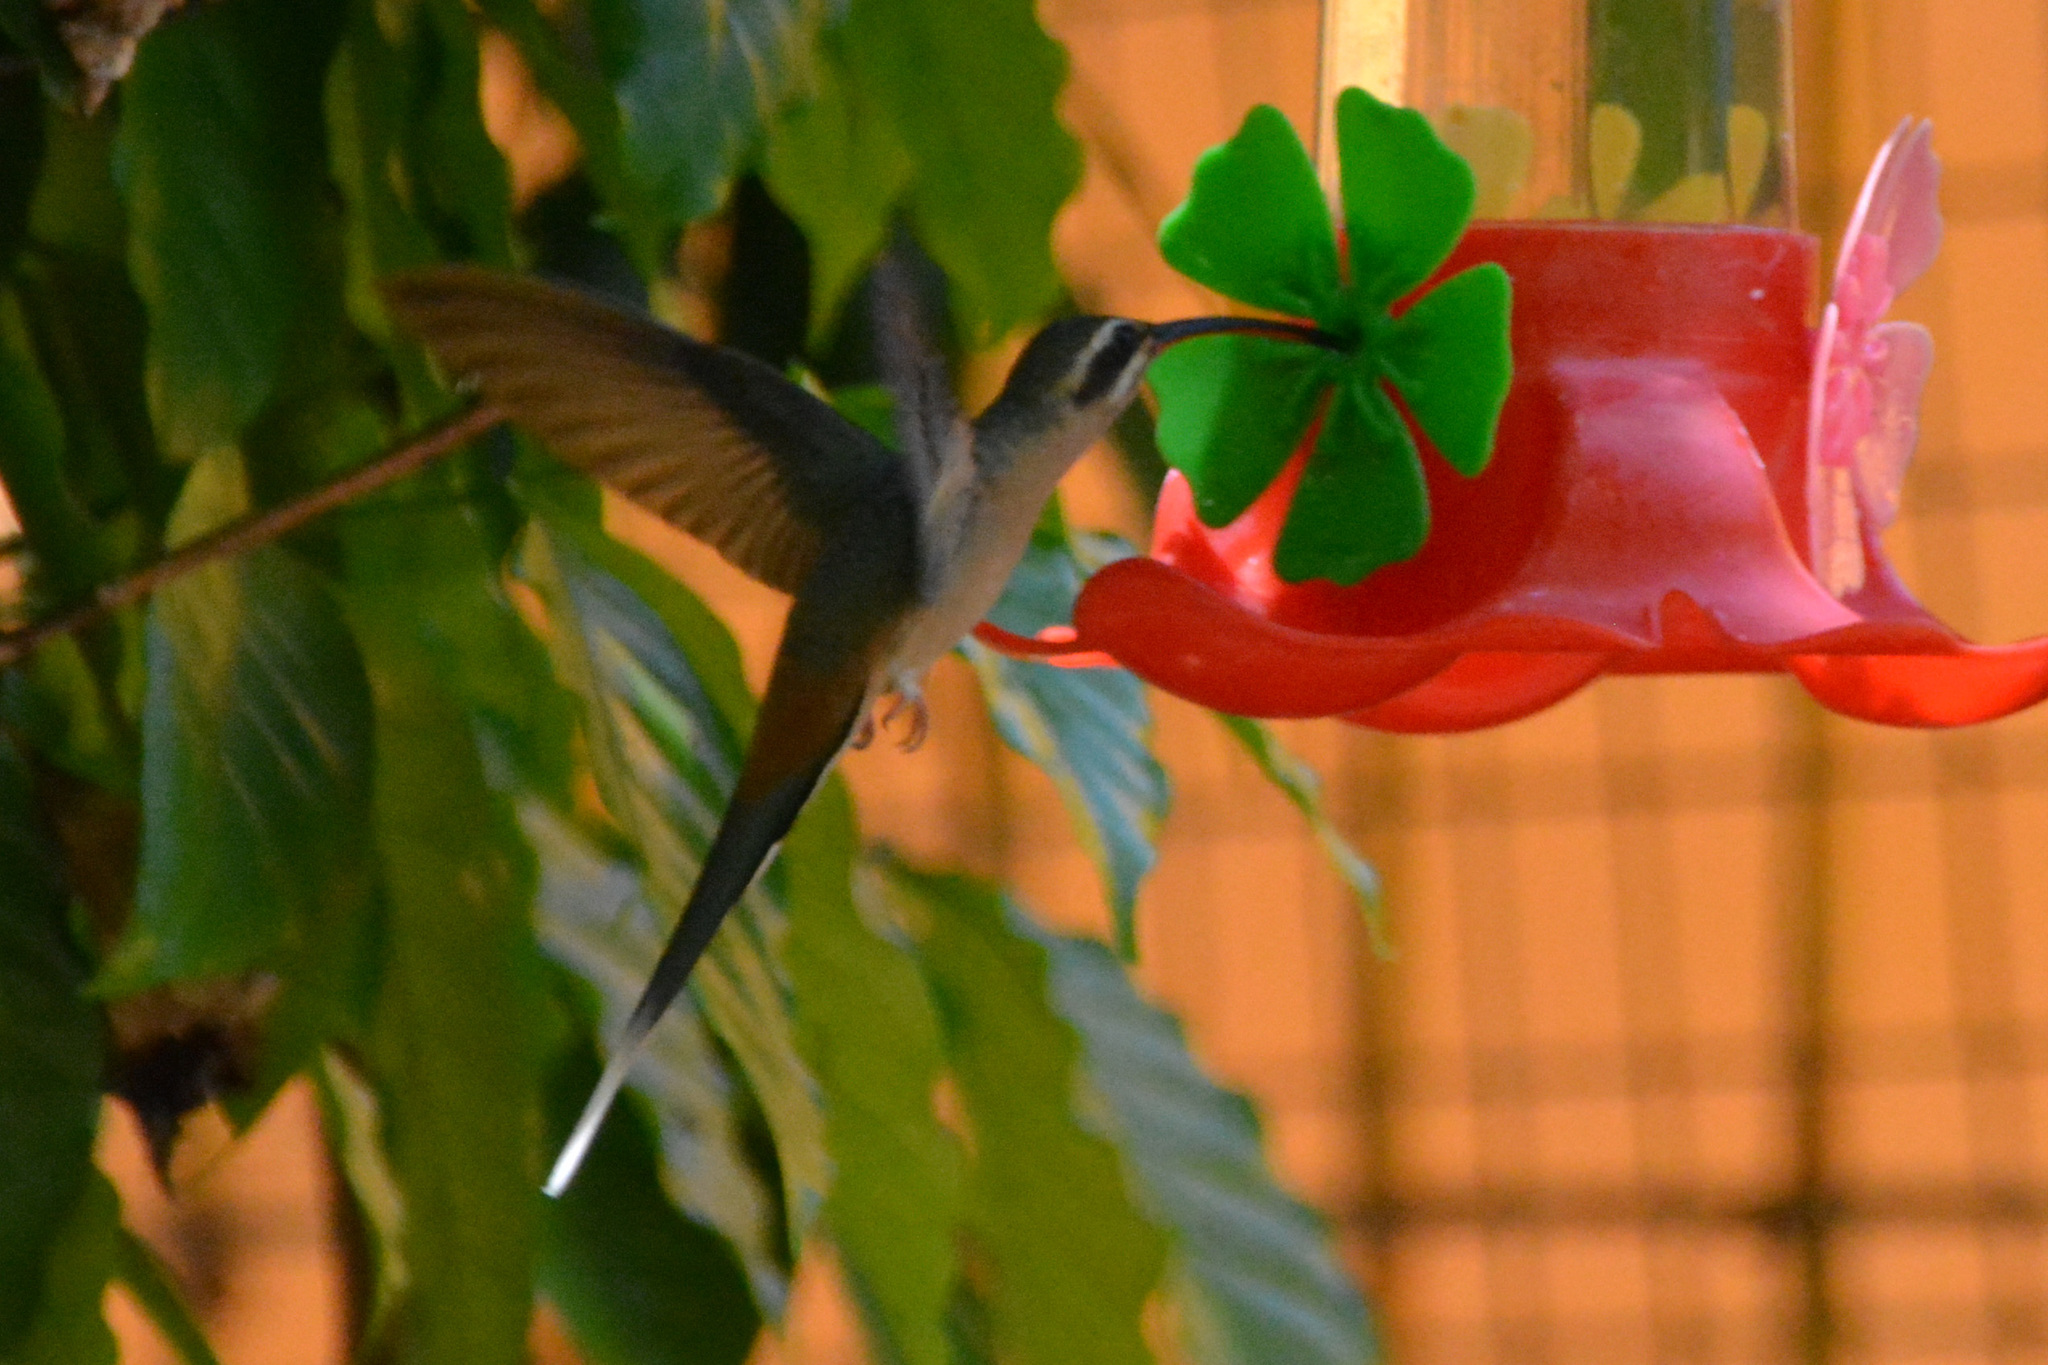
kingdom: Animalia
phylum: Chordata
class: Aves
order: Apodiformes
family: Trochilidae
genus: Phaethornis
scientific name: Phaethornis pretrei
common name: Planalto hermit
